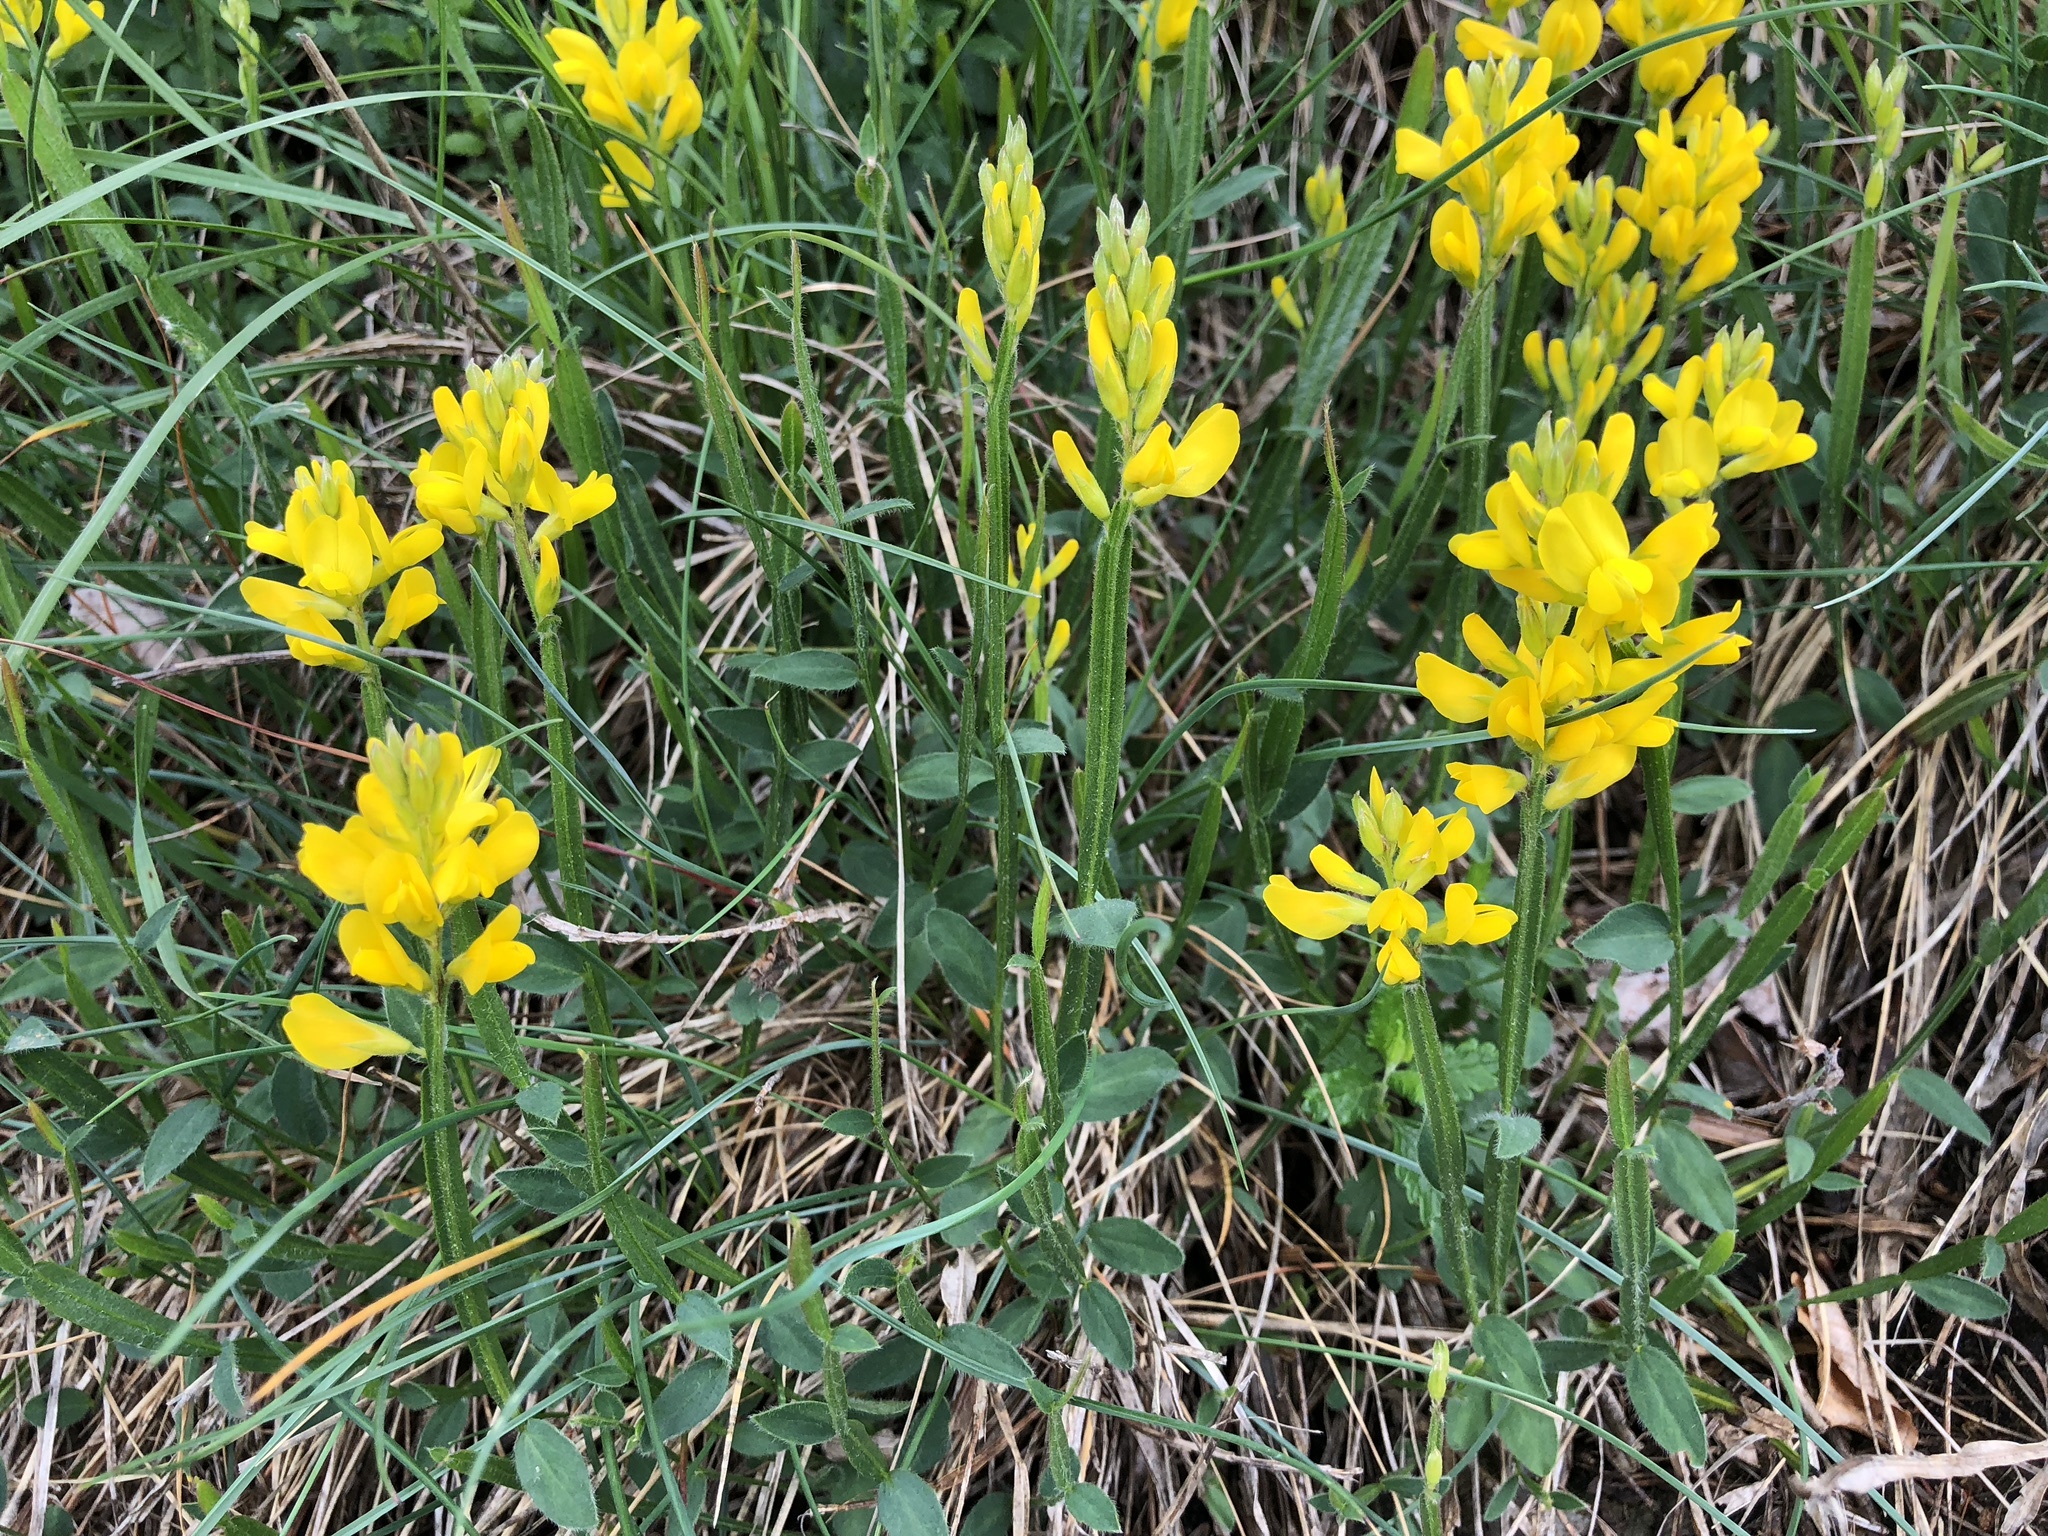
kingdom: Plantae
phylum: Tracheophyta
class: Magnoliopsida
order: Fabales
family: Fabaceae
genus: Genista
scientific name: Genista sagittalis
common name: Winged greenweed
